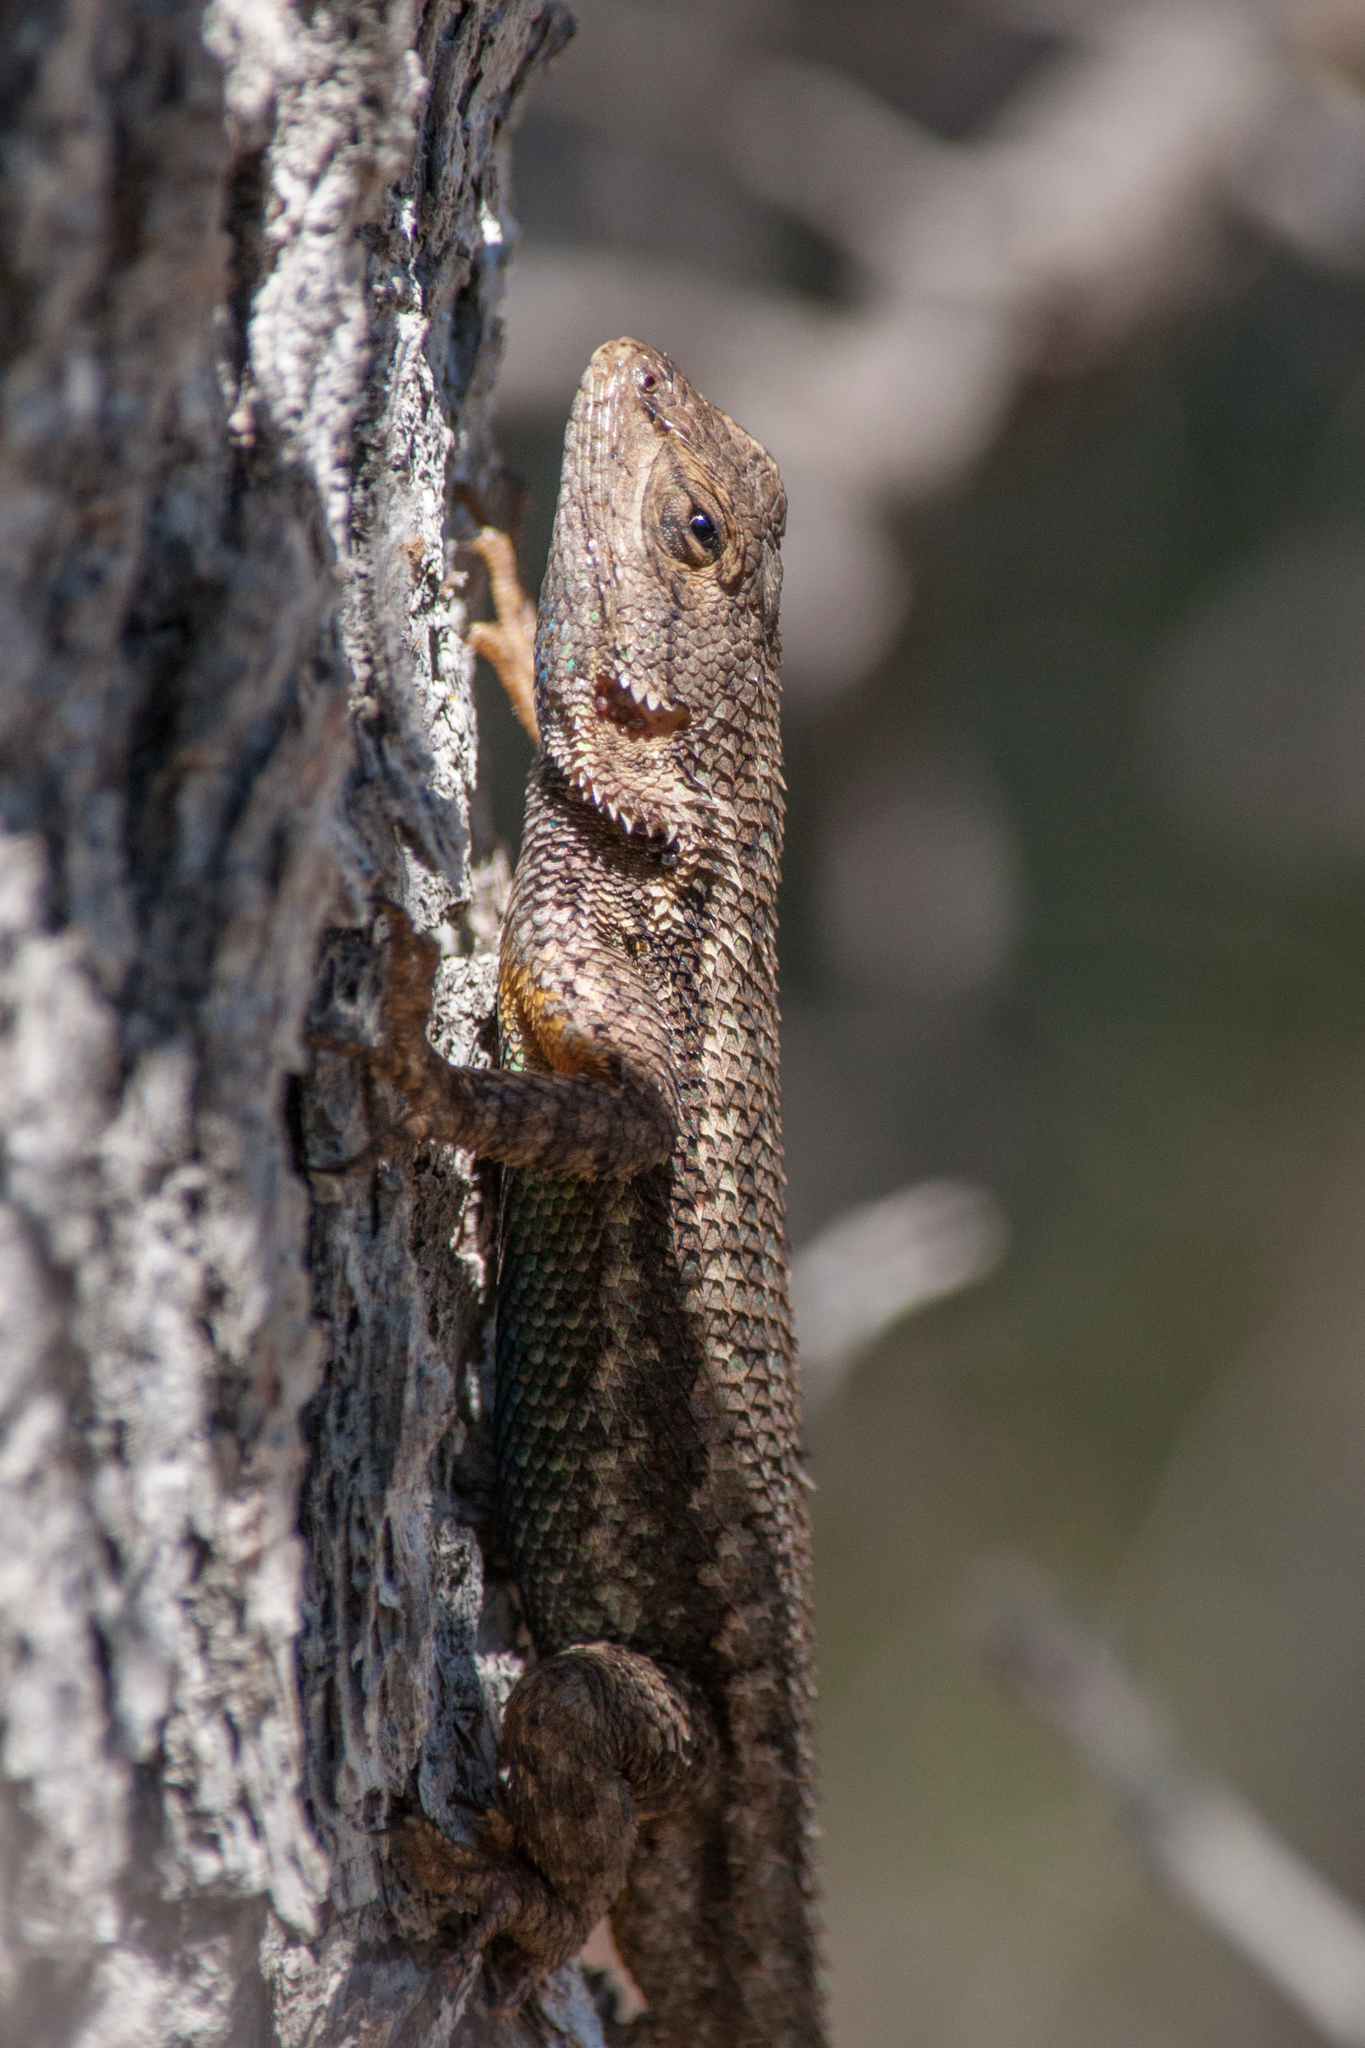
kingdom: Animalia
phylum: Chordata
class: Squamata
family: Phrynosomatidae
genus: Sceloporus
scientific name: Sceloporus occidentalis
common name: Western fence lizard
